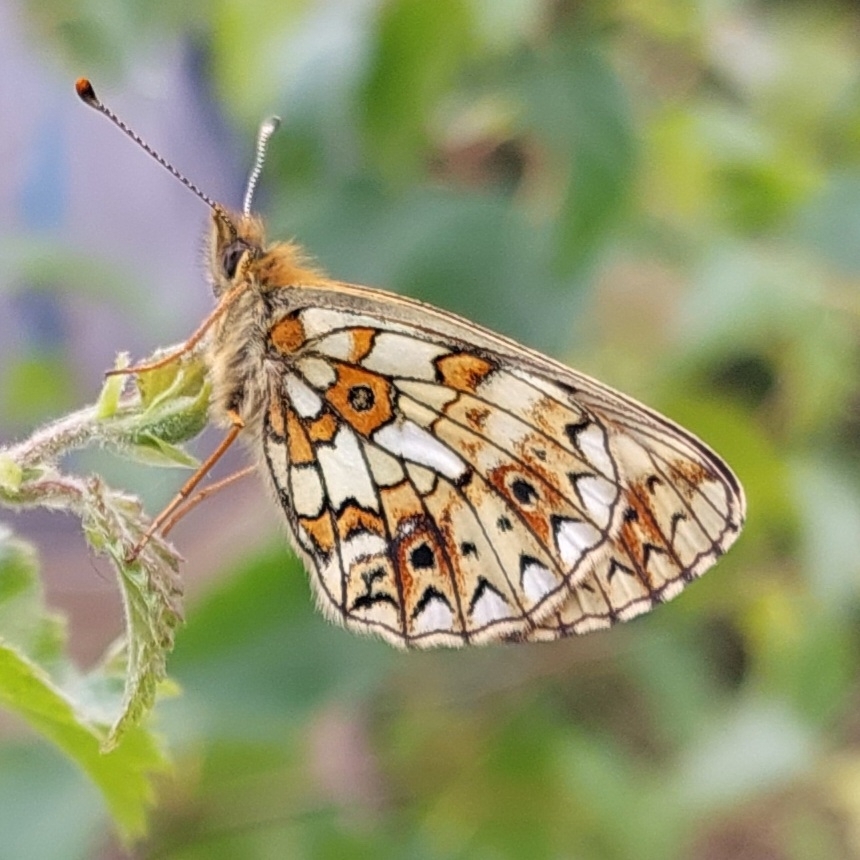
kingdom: Animalia
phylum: Arthropoda
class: Insecta
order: Lepidoptera
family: Nymphalidae
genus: Boloria
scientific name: Boloria selene
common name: Small pearl-bordered fritillary
